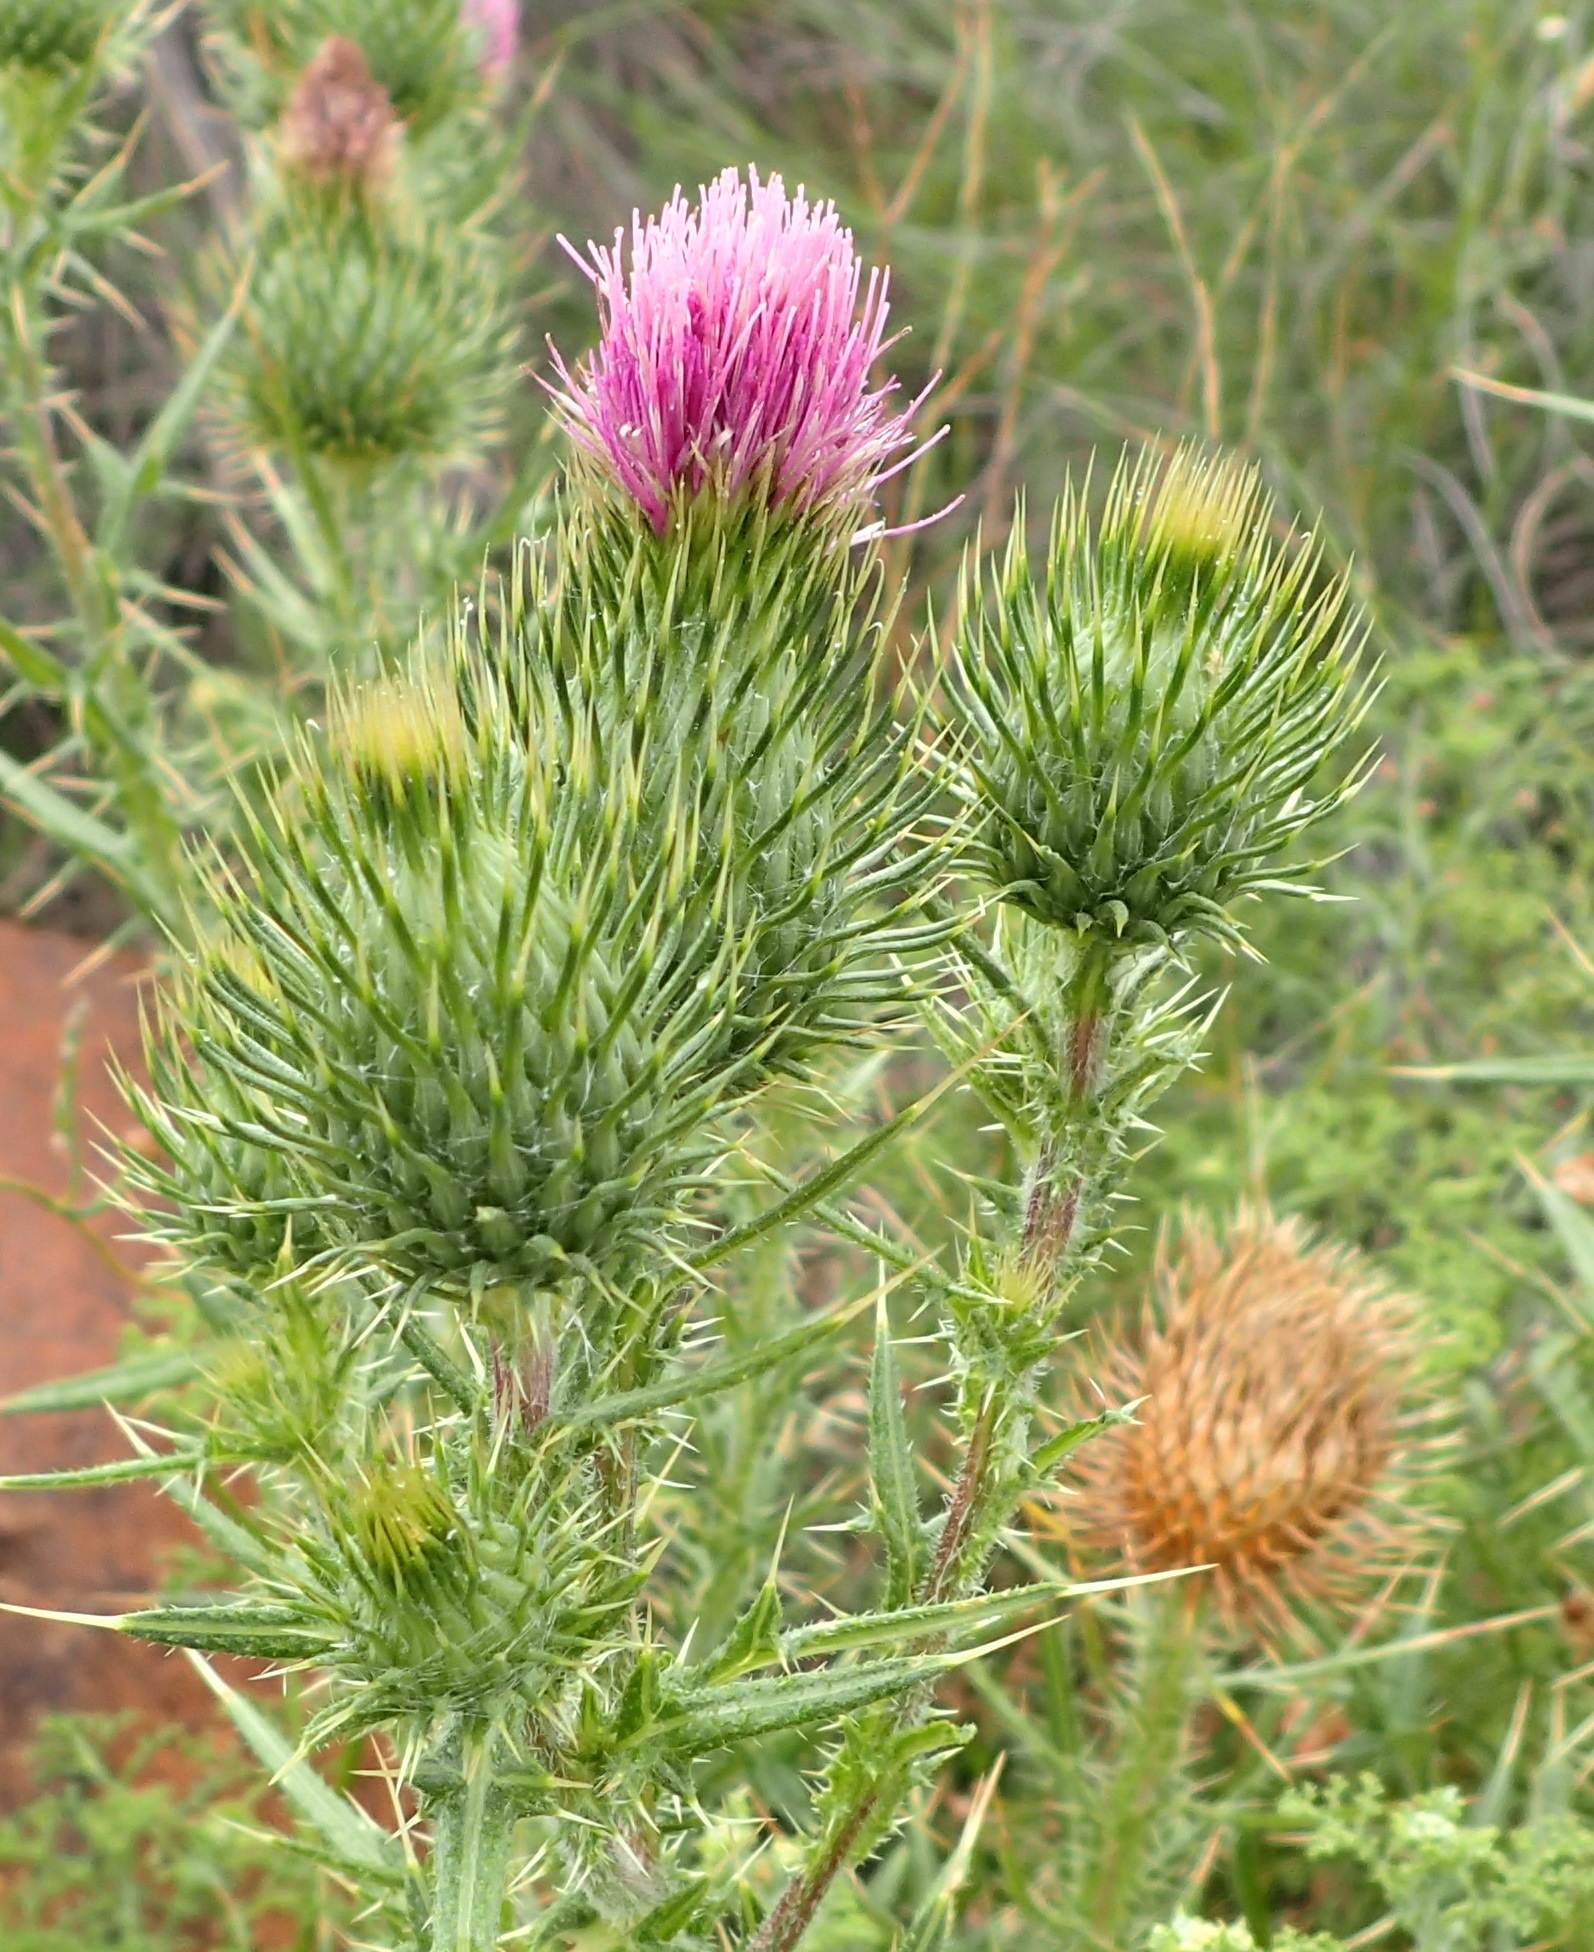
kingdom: Plantae
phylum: Tracheophyta
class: Magnoliopsida
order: Asterales
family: Asteraceae
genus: Cirsium
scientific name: Cirsium vulgare
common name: Bull thistle
